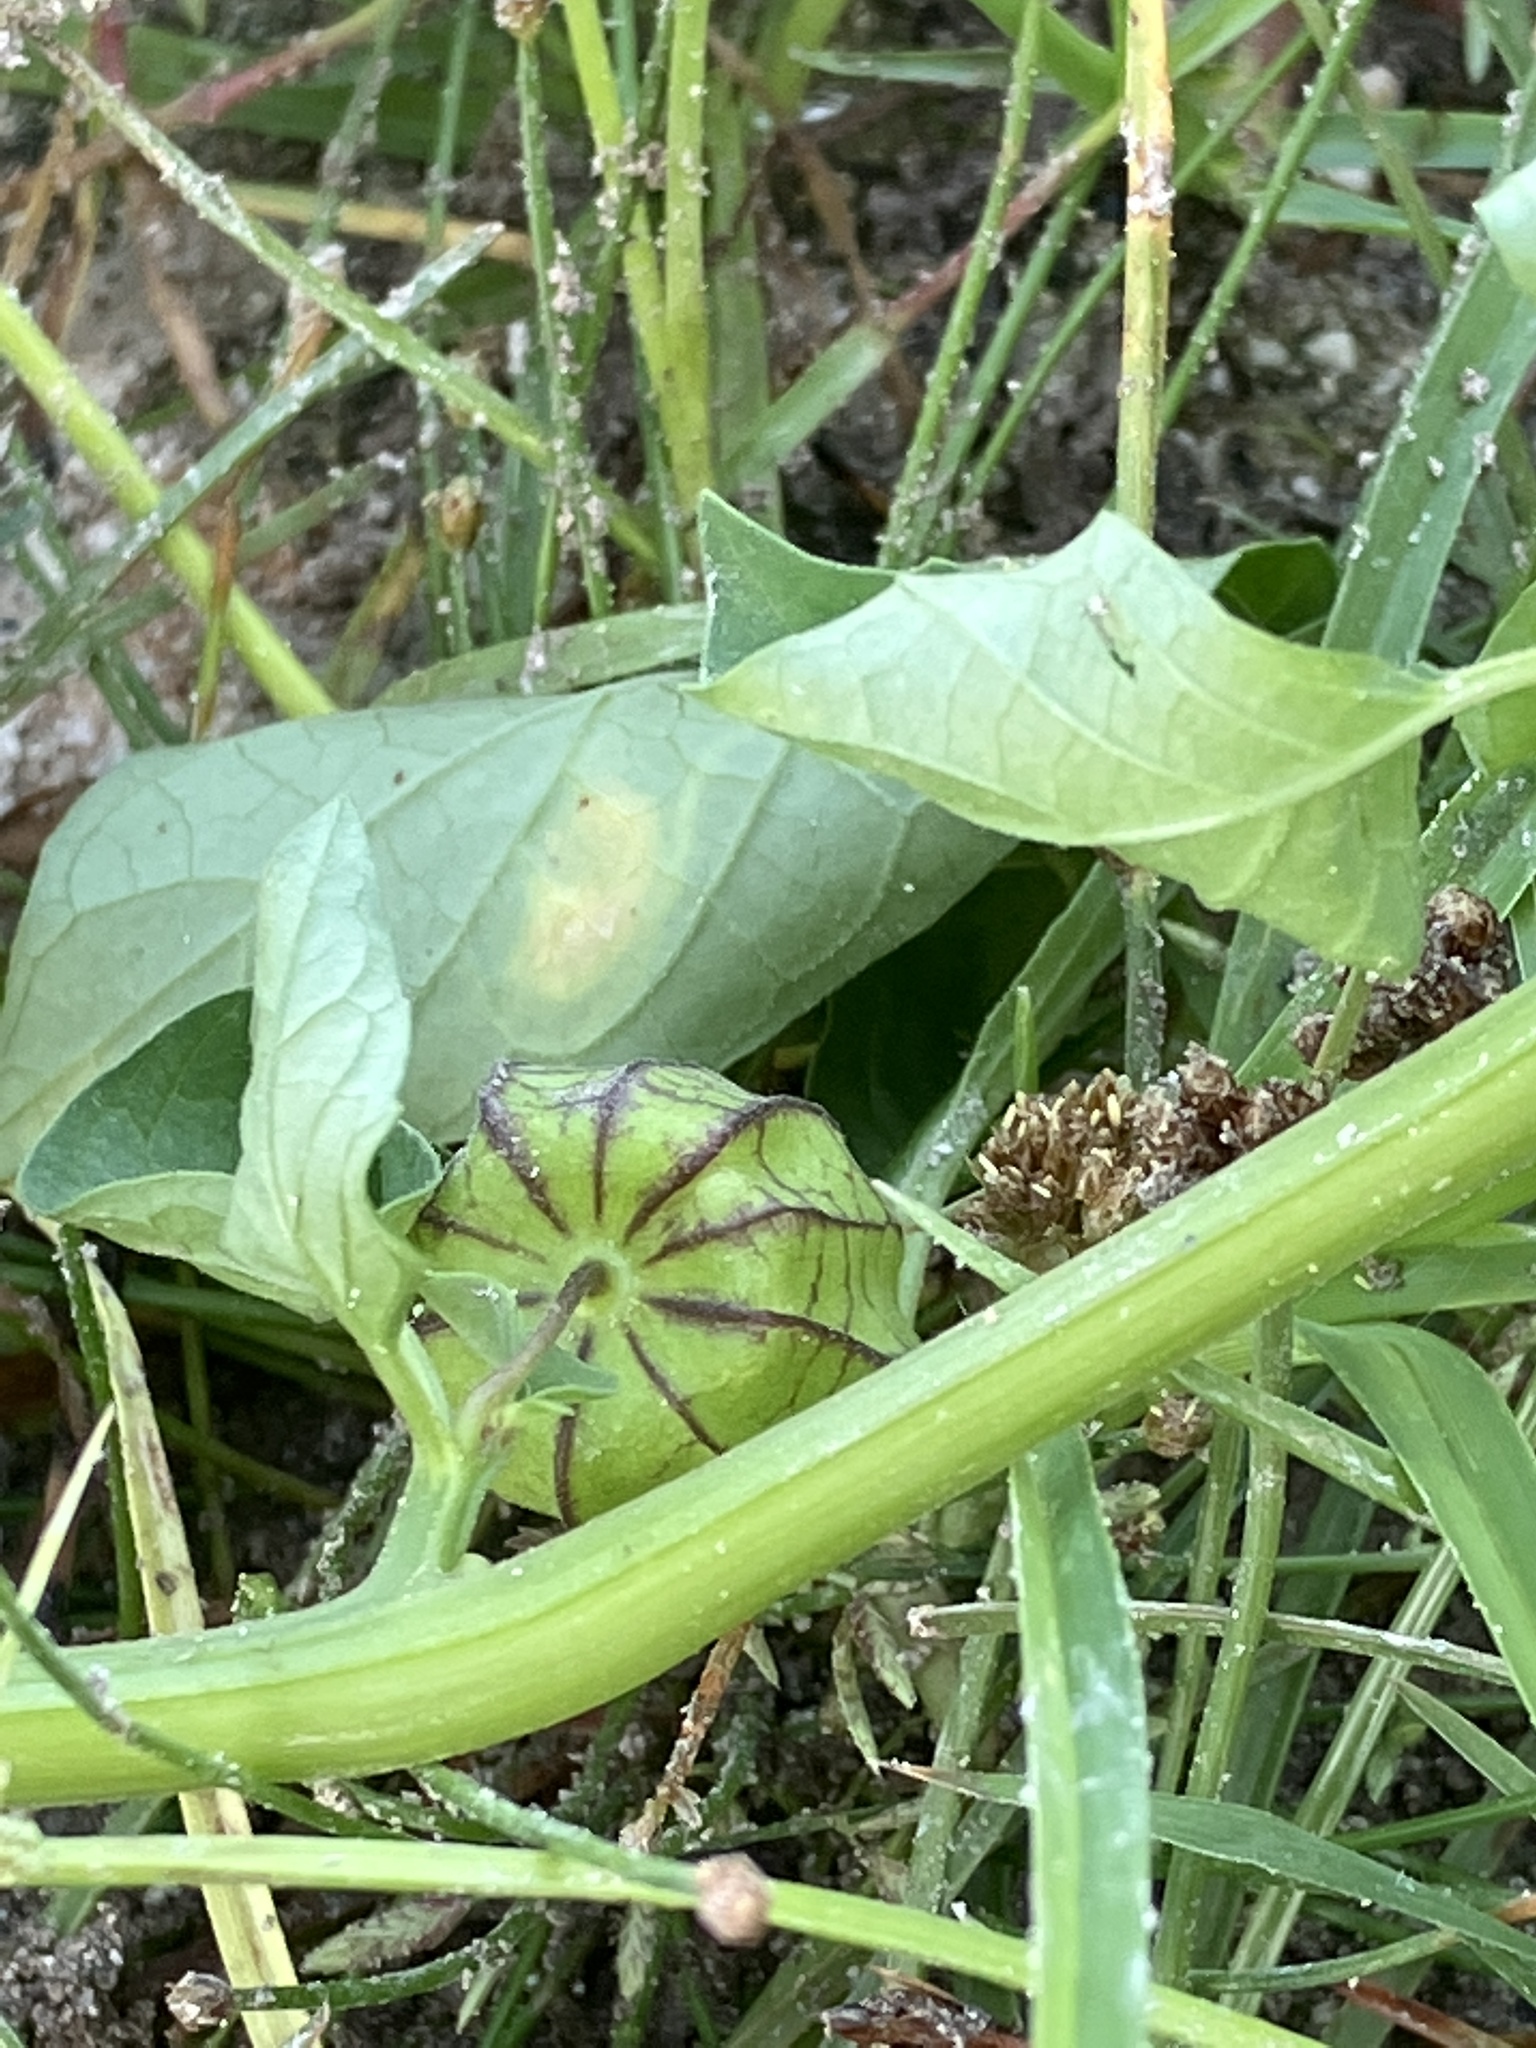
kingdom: Plantae
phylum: Tracheophyta
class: Magnoliopsida
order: Solanales
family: Solanaceae
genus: Physalis
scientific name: Physalis angulata
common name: Angular winter-cherry
